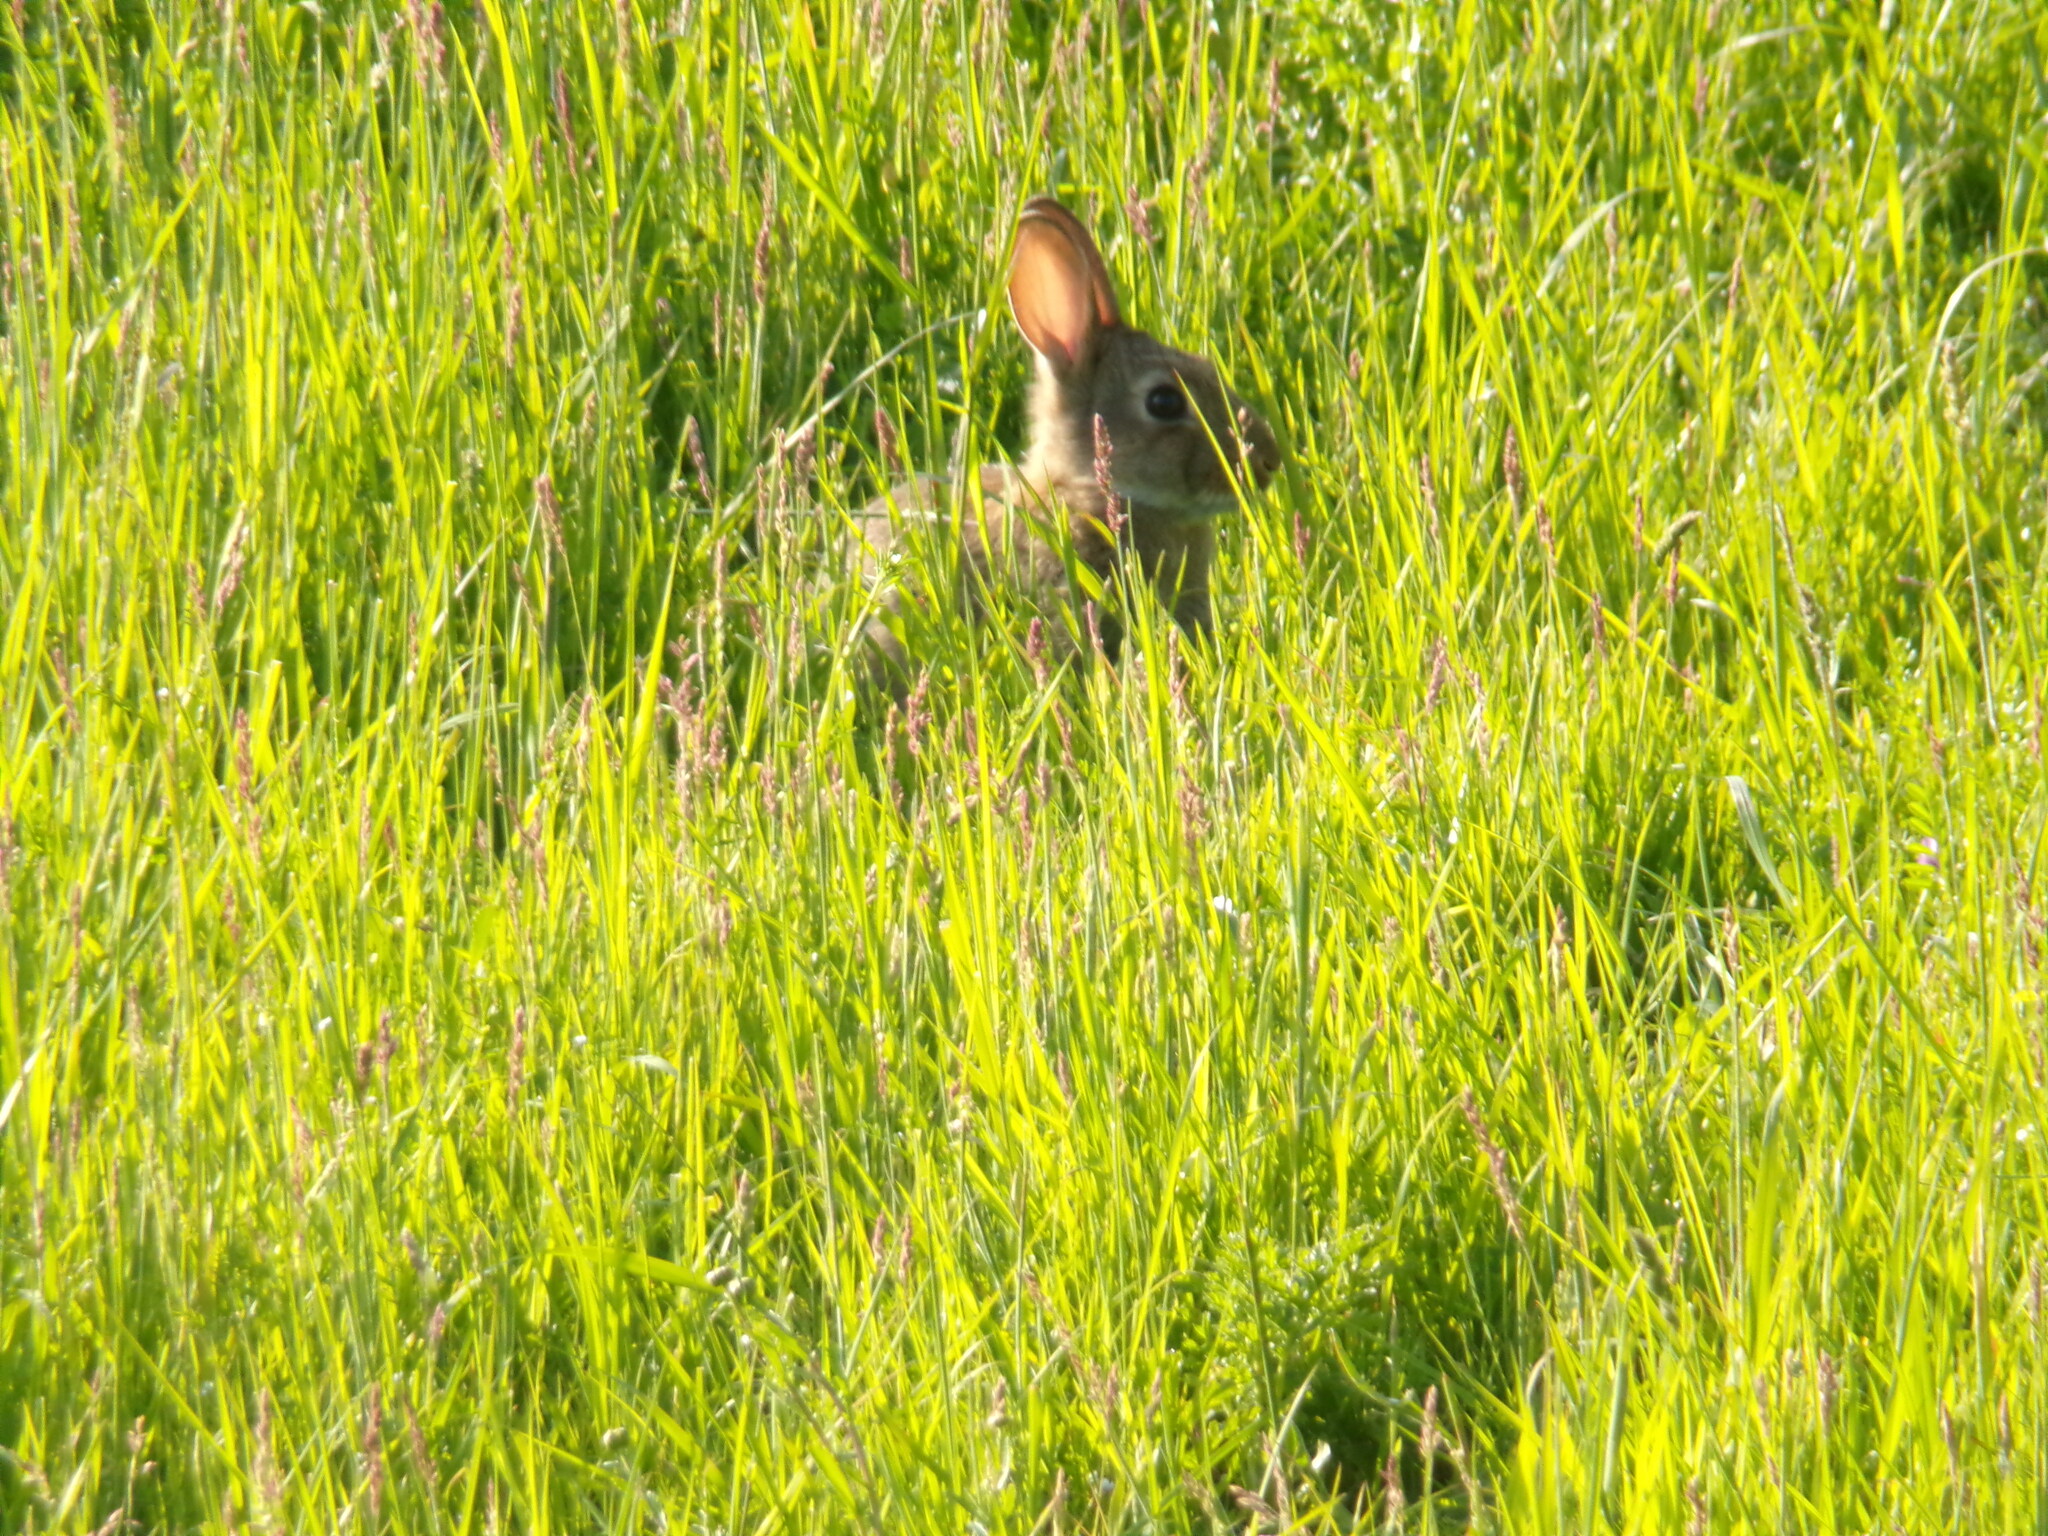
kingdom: Animalia
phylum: Chordata
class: Mammalia
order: Lagomorpha
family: Leporidae
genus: Oryctolagus
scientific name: Oryctolagus cuniculus
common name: European rabbit
